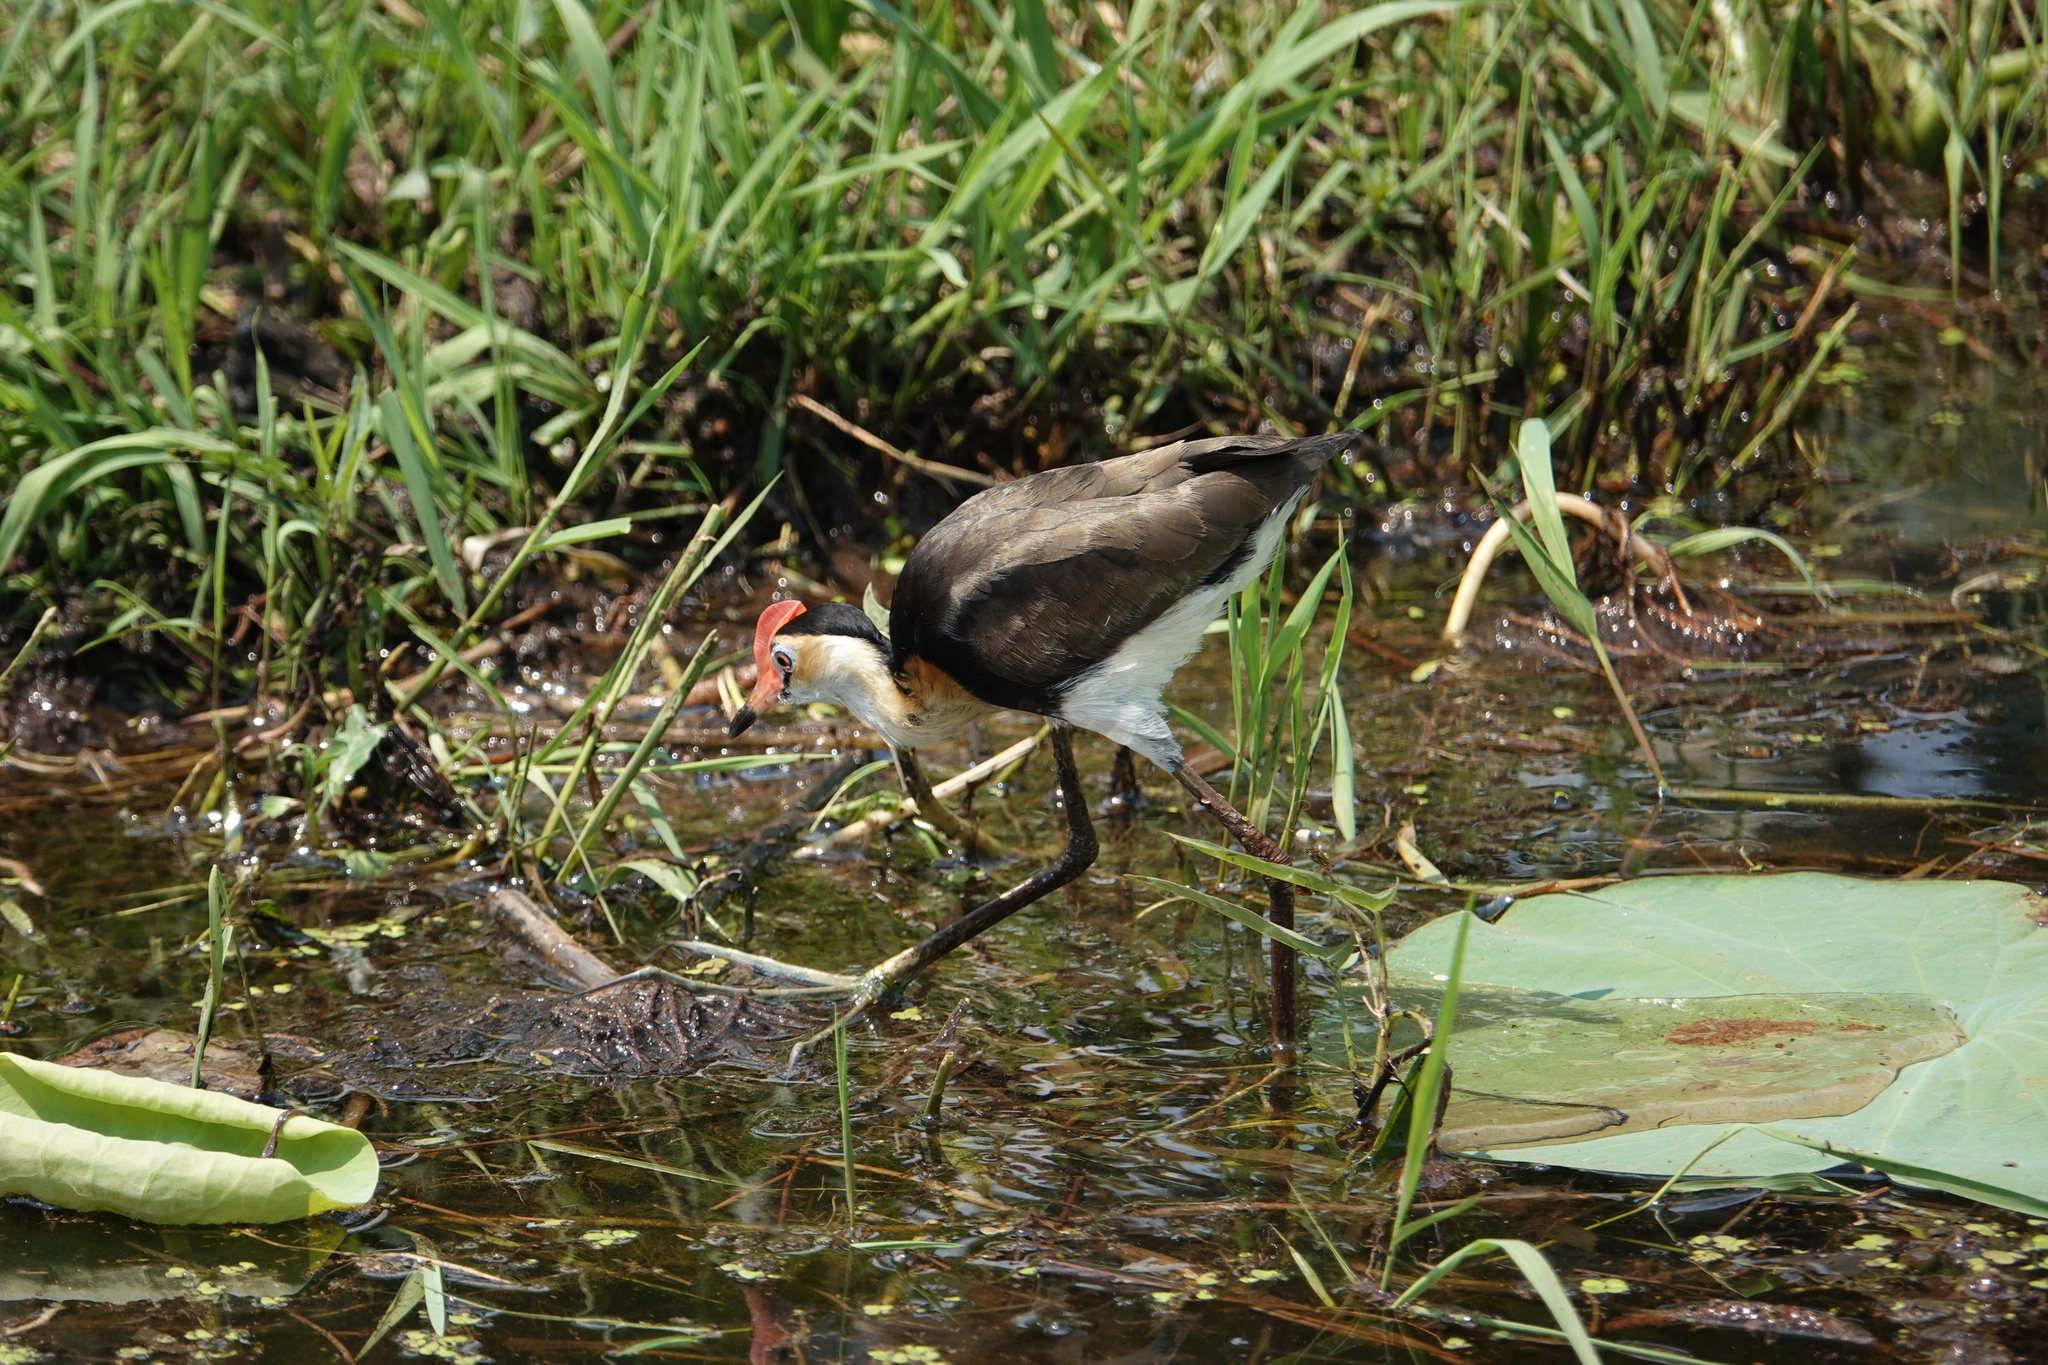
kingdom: Animalia
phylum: Chordata
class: Aves
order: Charadriiformes
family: Jacanidae
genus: Irediparra
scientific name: Irediparra gallinacea
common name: Comb-crested jacana
